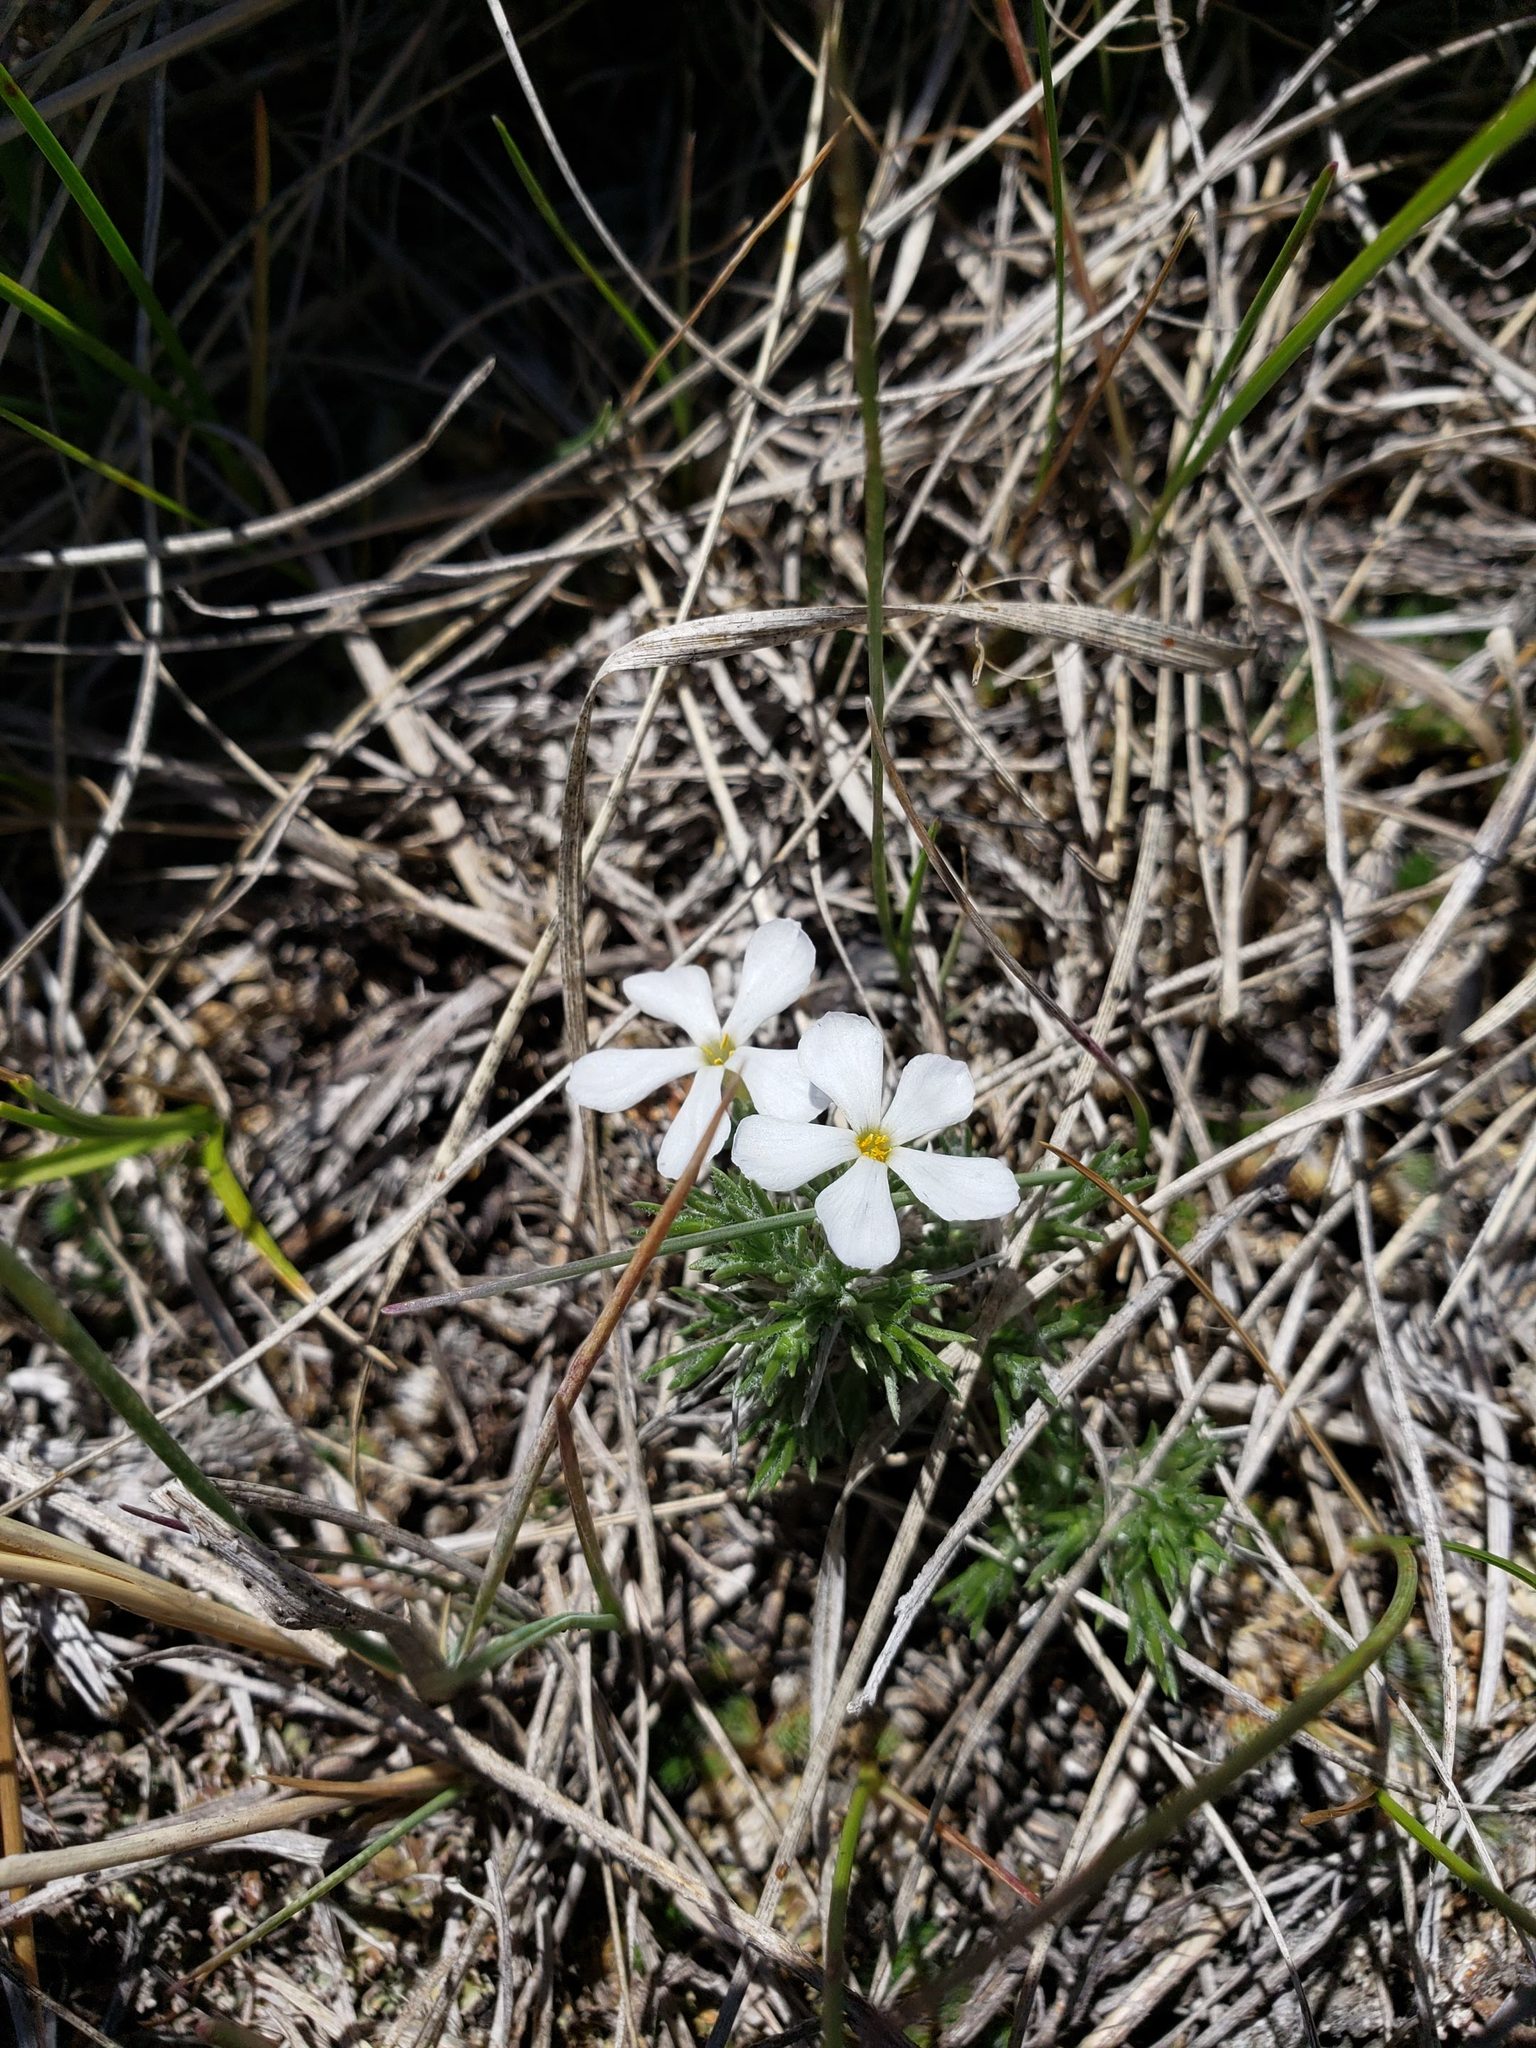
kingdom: Plantae
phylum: Tracheophyta
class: Magnoliopsida
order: Ericales
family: Polemoniaceae
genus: Phlox
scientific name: Phlox hoodii
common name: Moss phlox
